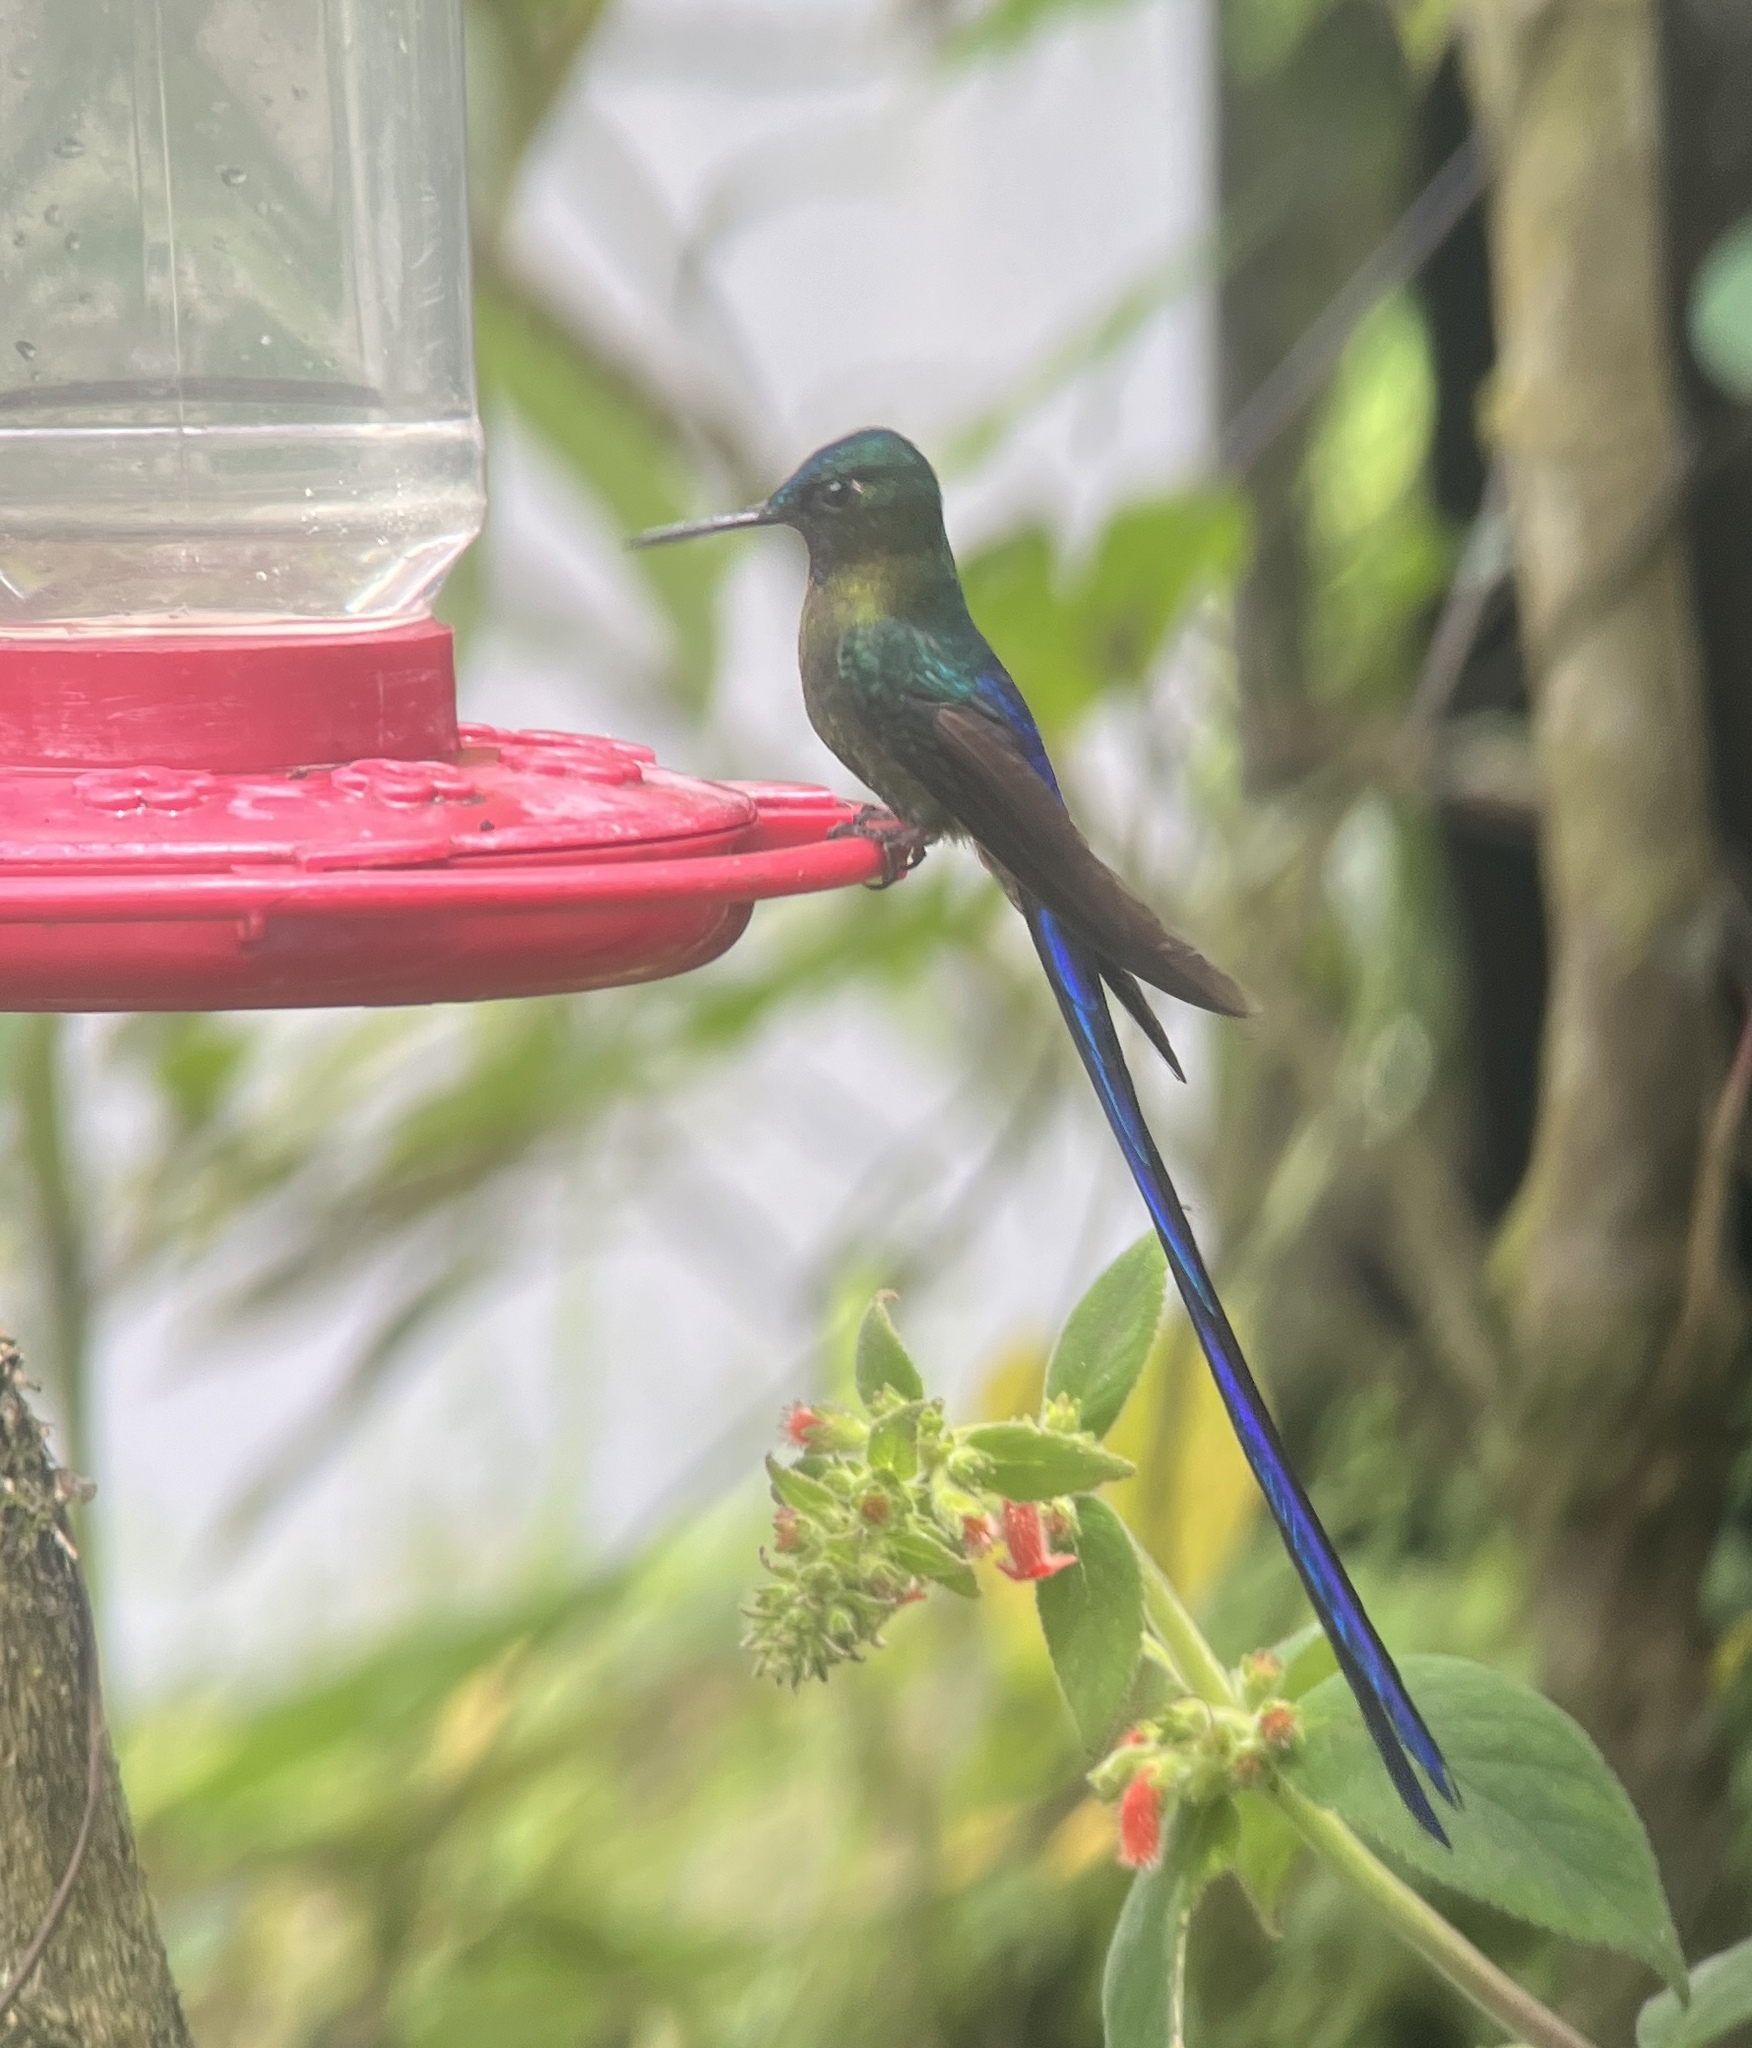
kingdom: Animalia
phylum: Chordata
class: Aves
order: Apodiformes
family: Trochilidae
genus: Aglaiocercus
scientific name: Aglaiocercus coelestis
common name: Violet-tailed sylph
